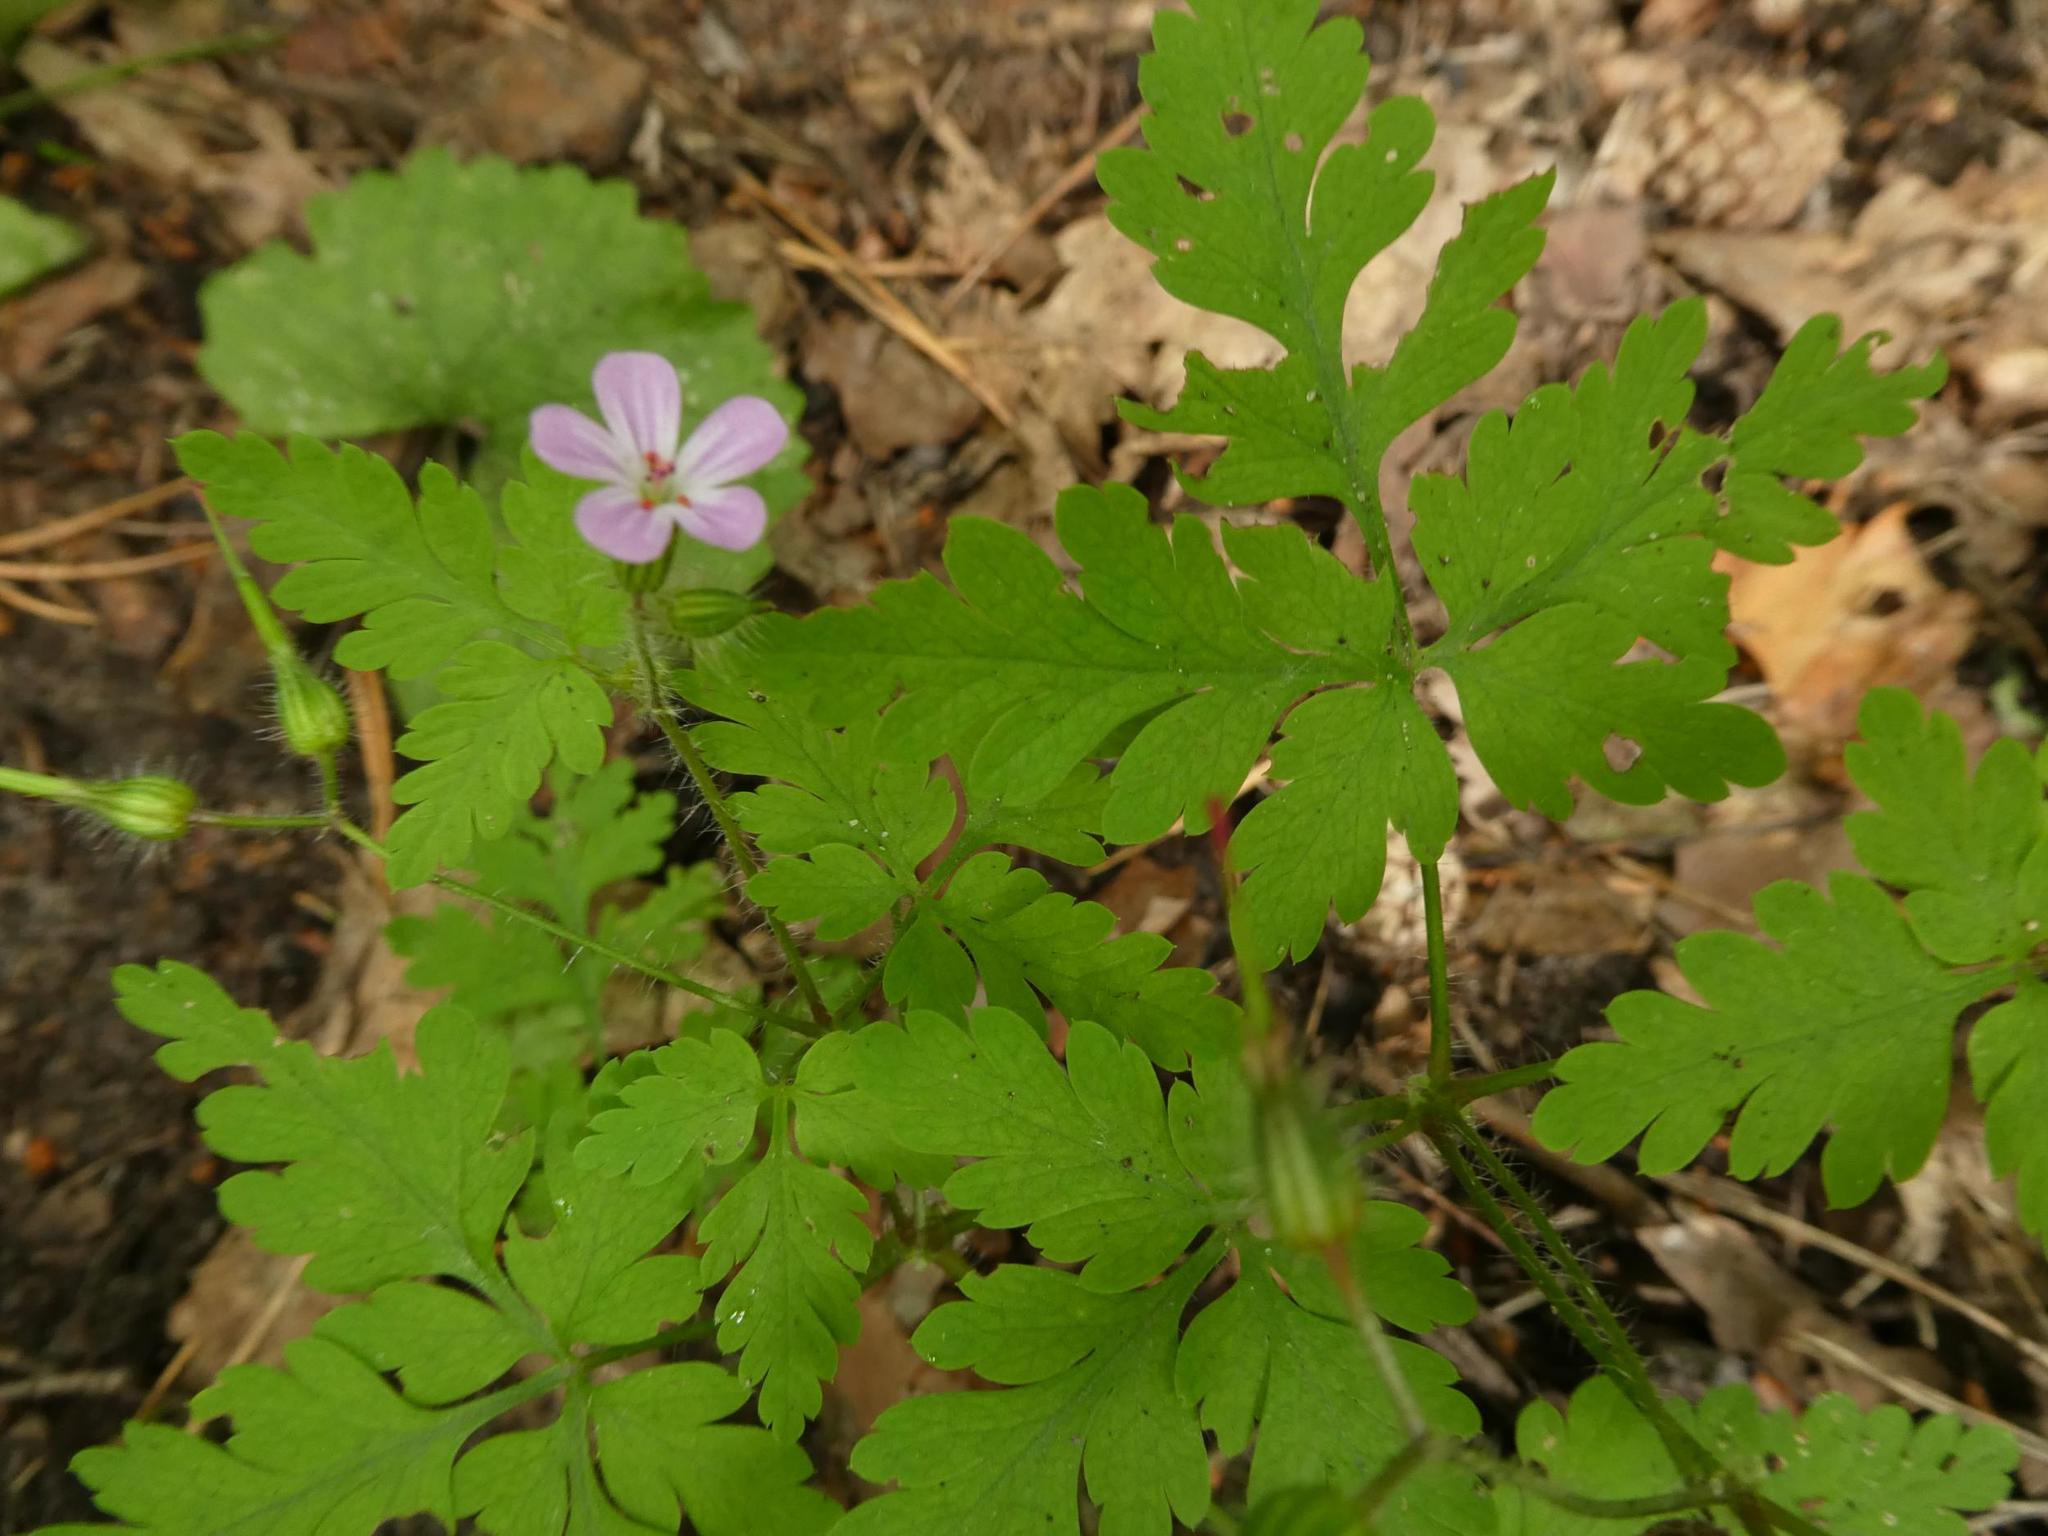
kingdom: Plantae
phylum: Tracheophyta
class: Magnoliopsida
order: Geraniales
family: Geraniaceae
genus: Geranium
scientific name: Geranium robertianum
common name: Herb-robert
